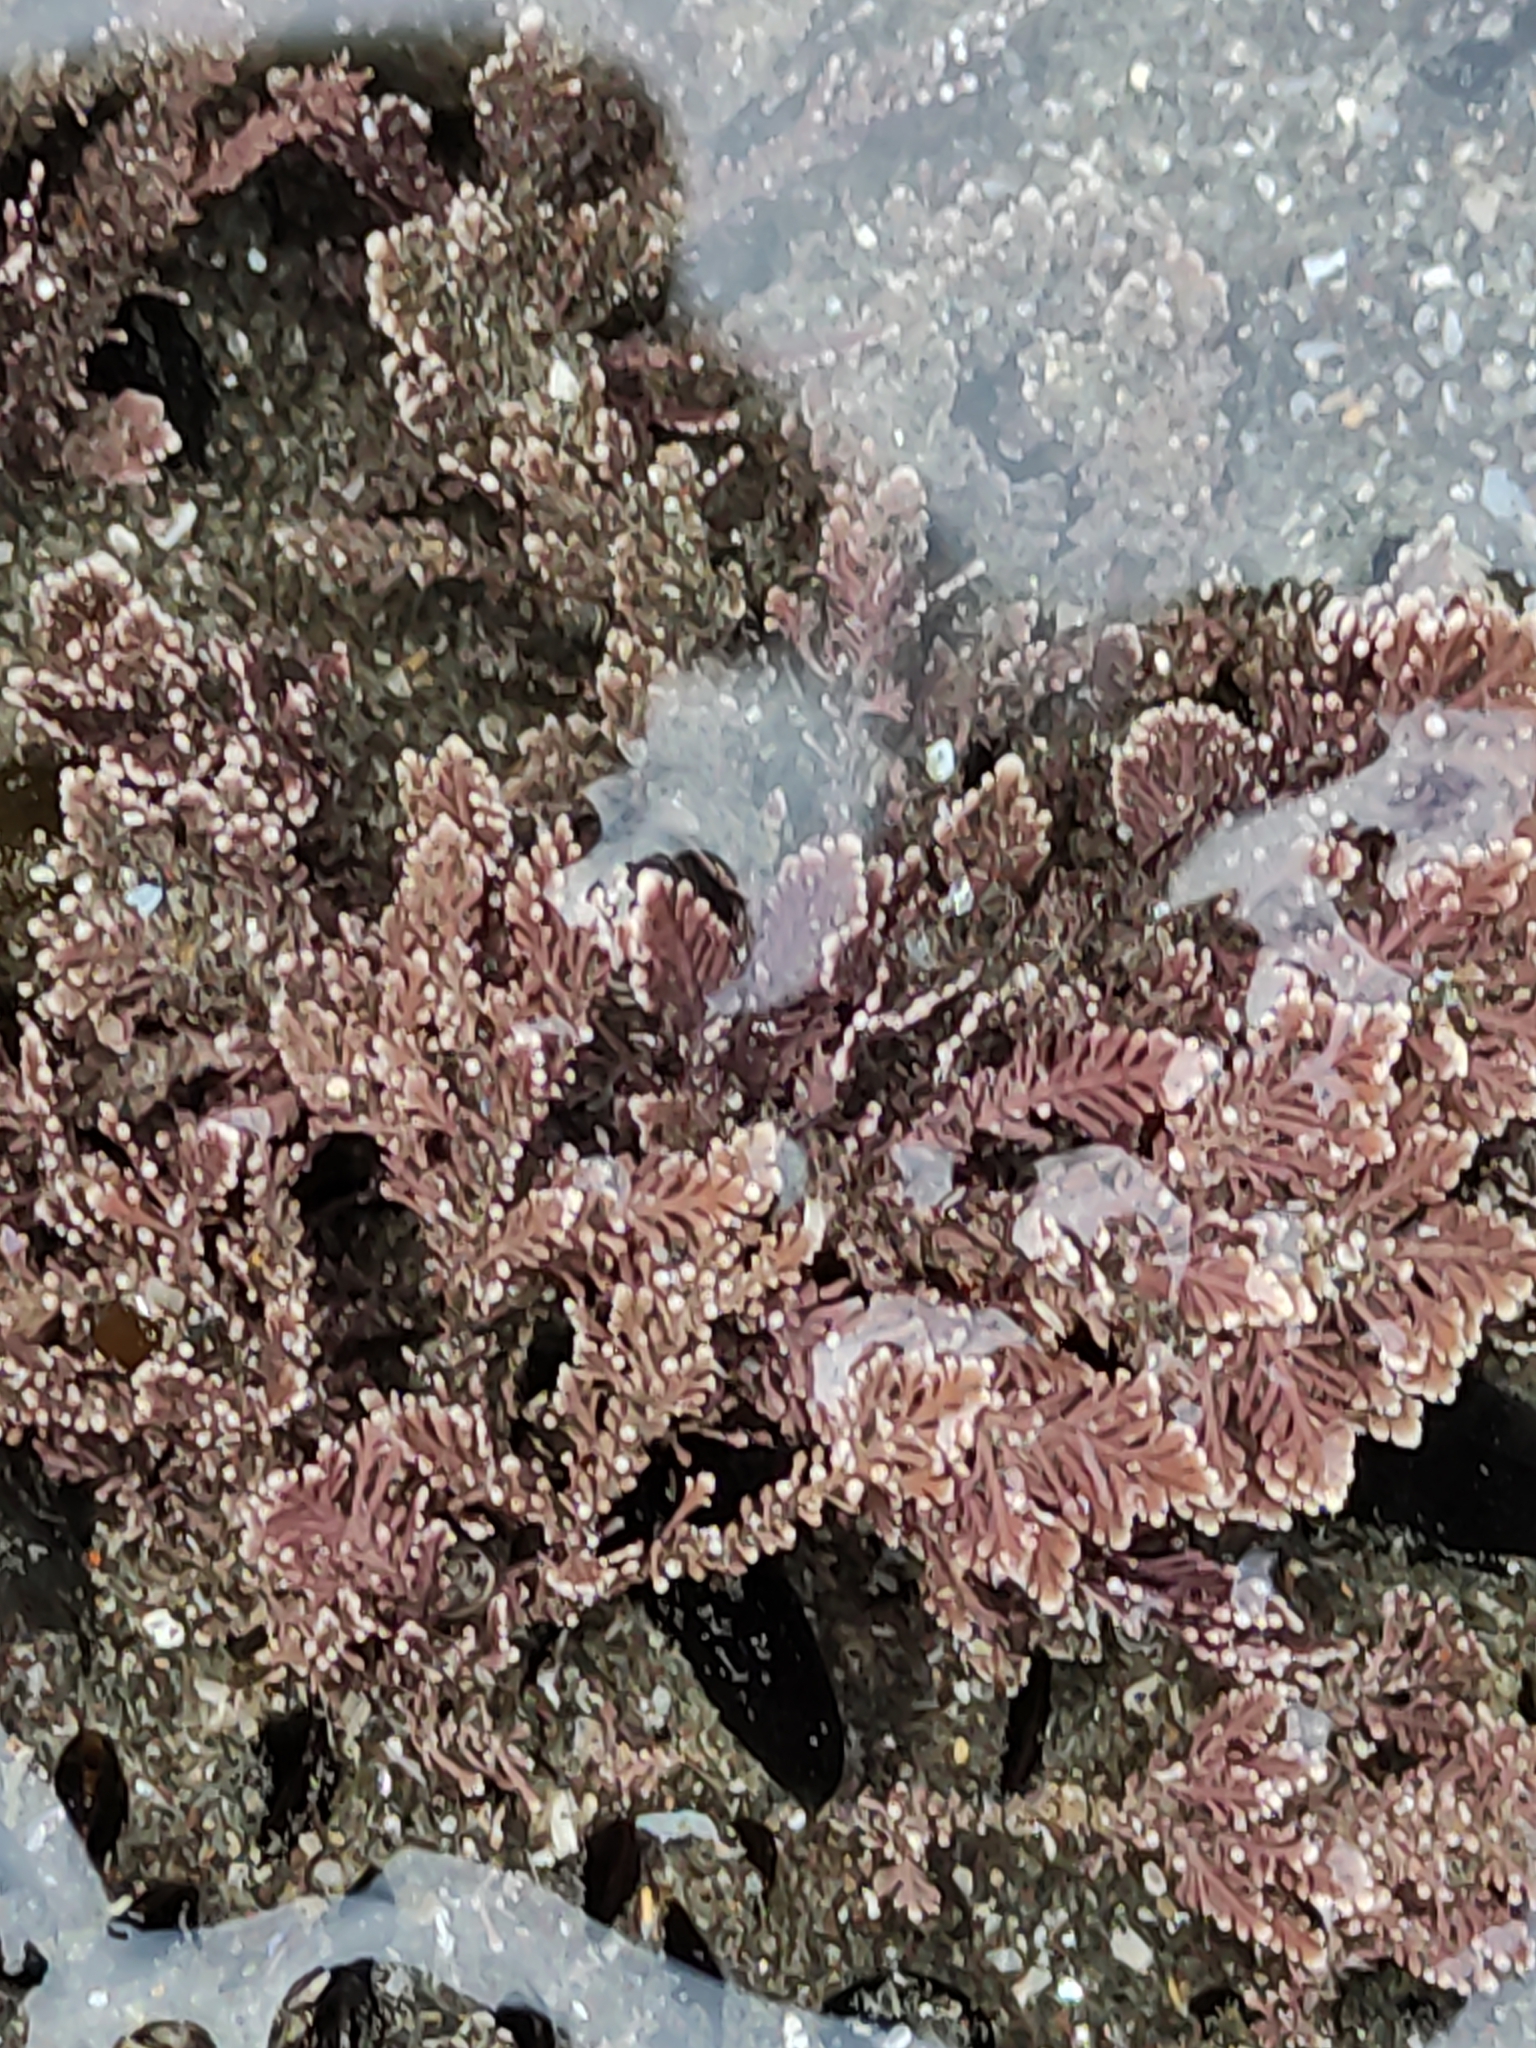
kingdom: Plantae
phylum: Rhodophyta
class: Florideophyceae
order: Corallinales
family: Corallinaceae
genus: Corallina
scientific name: Corallina officinalis
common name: Coral weed
